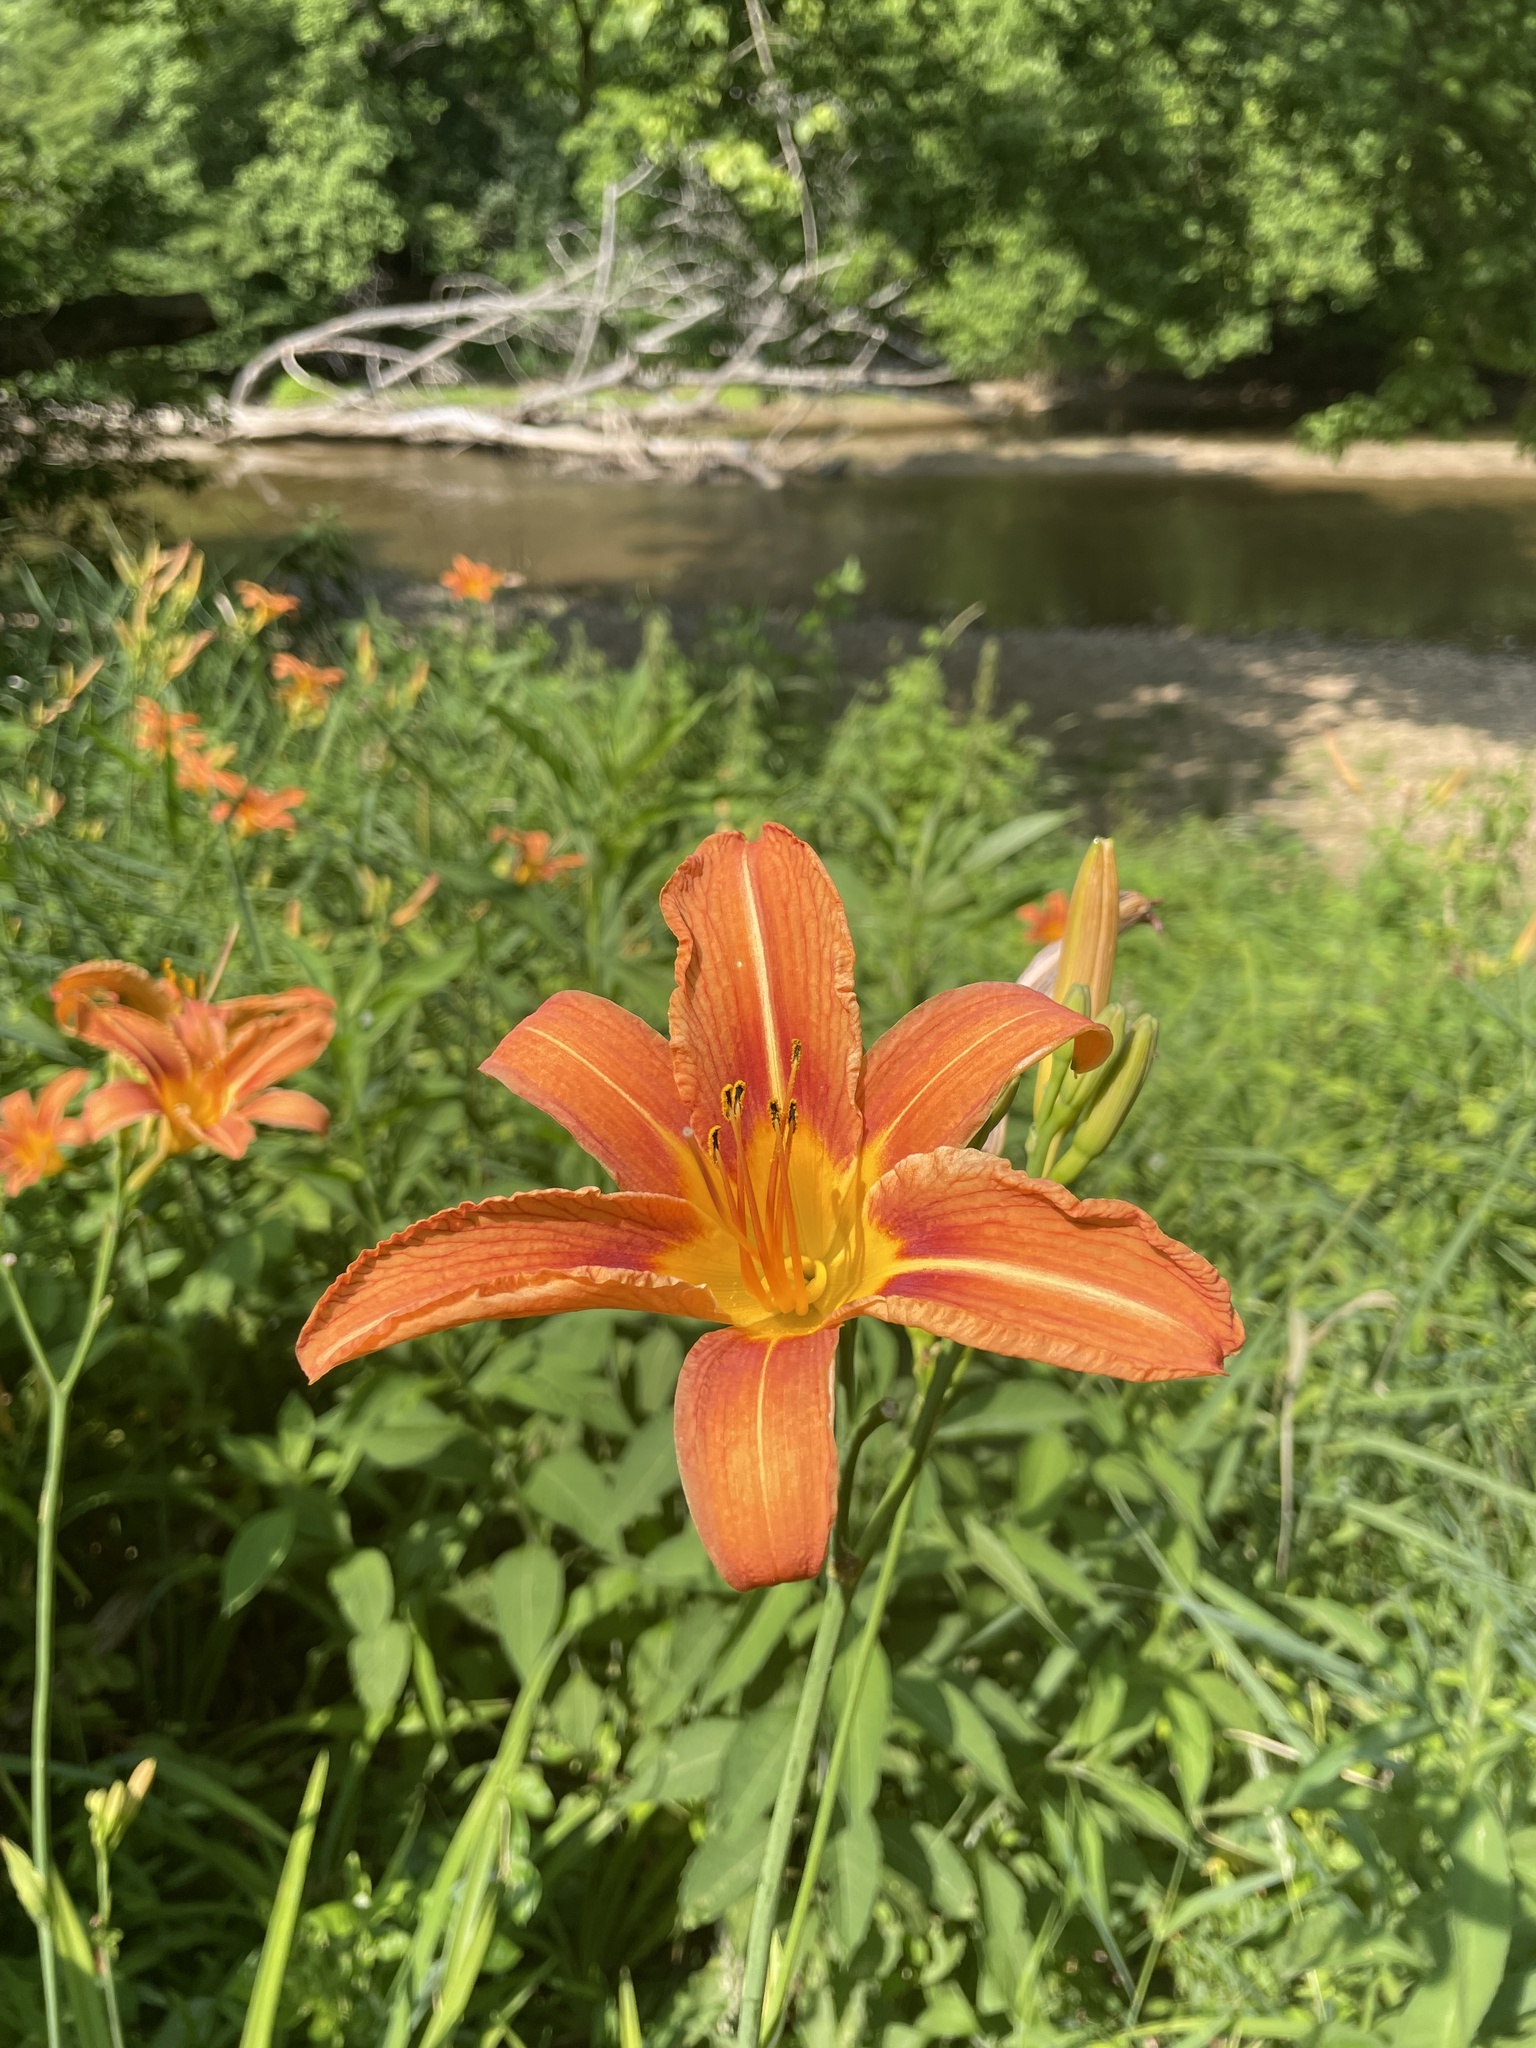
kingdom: Plantae
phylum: Tracheophyta
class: Liliopsida
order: Asparagales
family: Asphodelaceae
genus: Hemerocallis
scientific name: Hemerocallis fulva
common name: Orange day-lily
